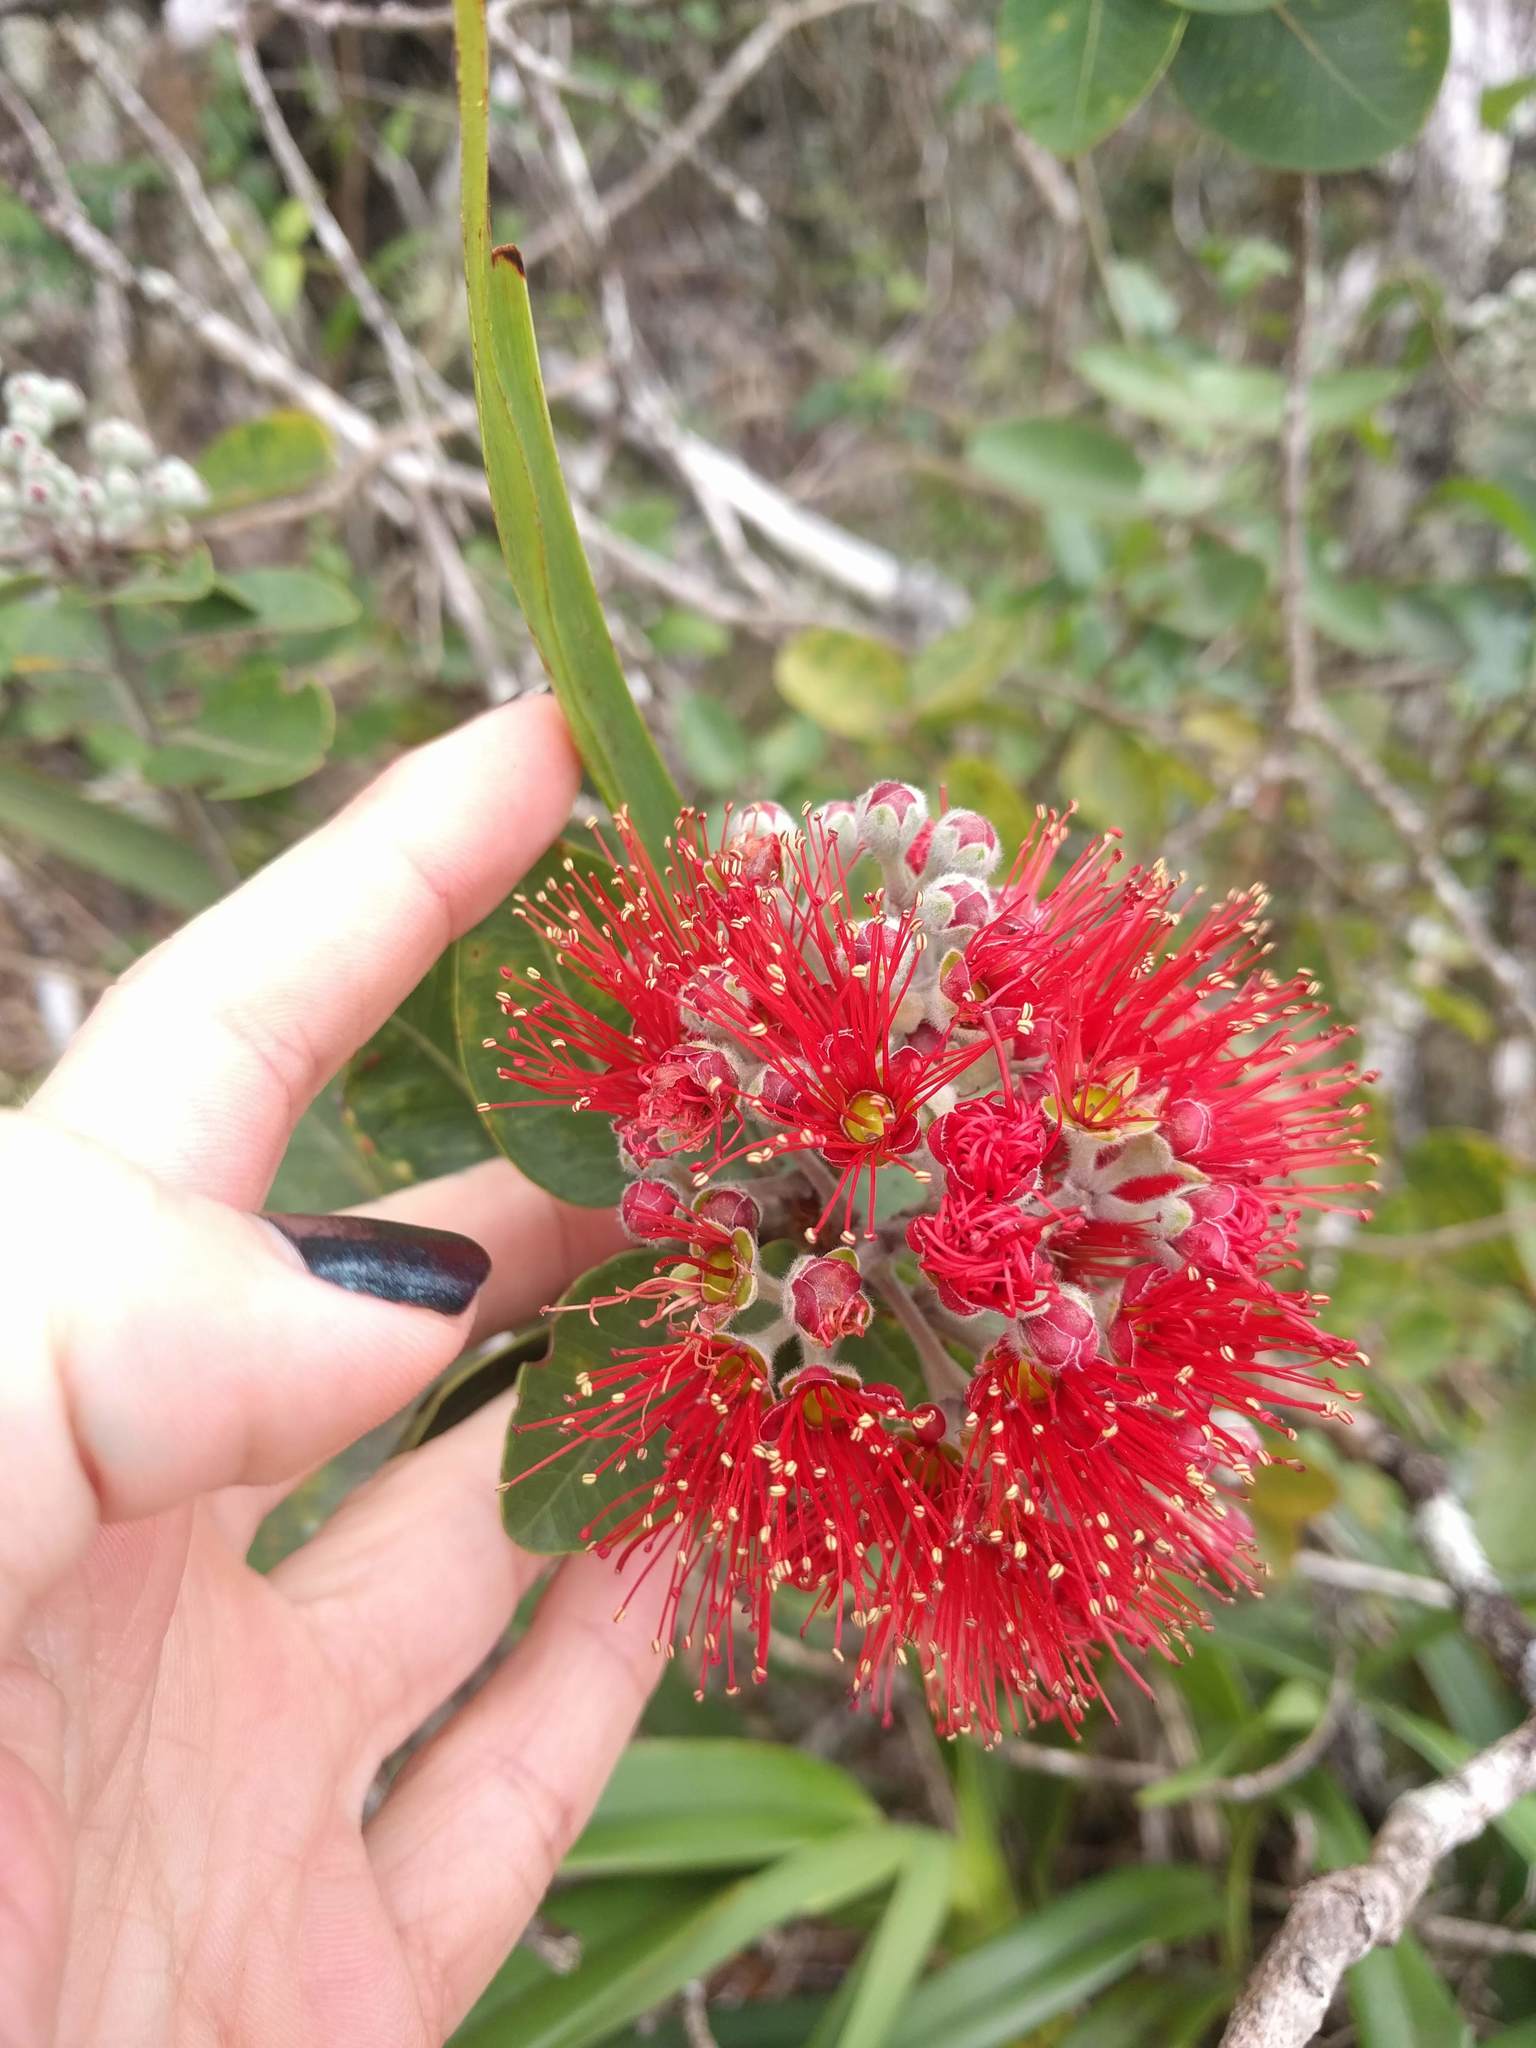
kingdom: Plantae
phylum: Tracheophyta
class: Magnoliopsida
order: Myrtales
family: Myrtaceae
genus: Metrosideros
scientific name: Metrosideros polymorpha
